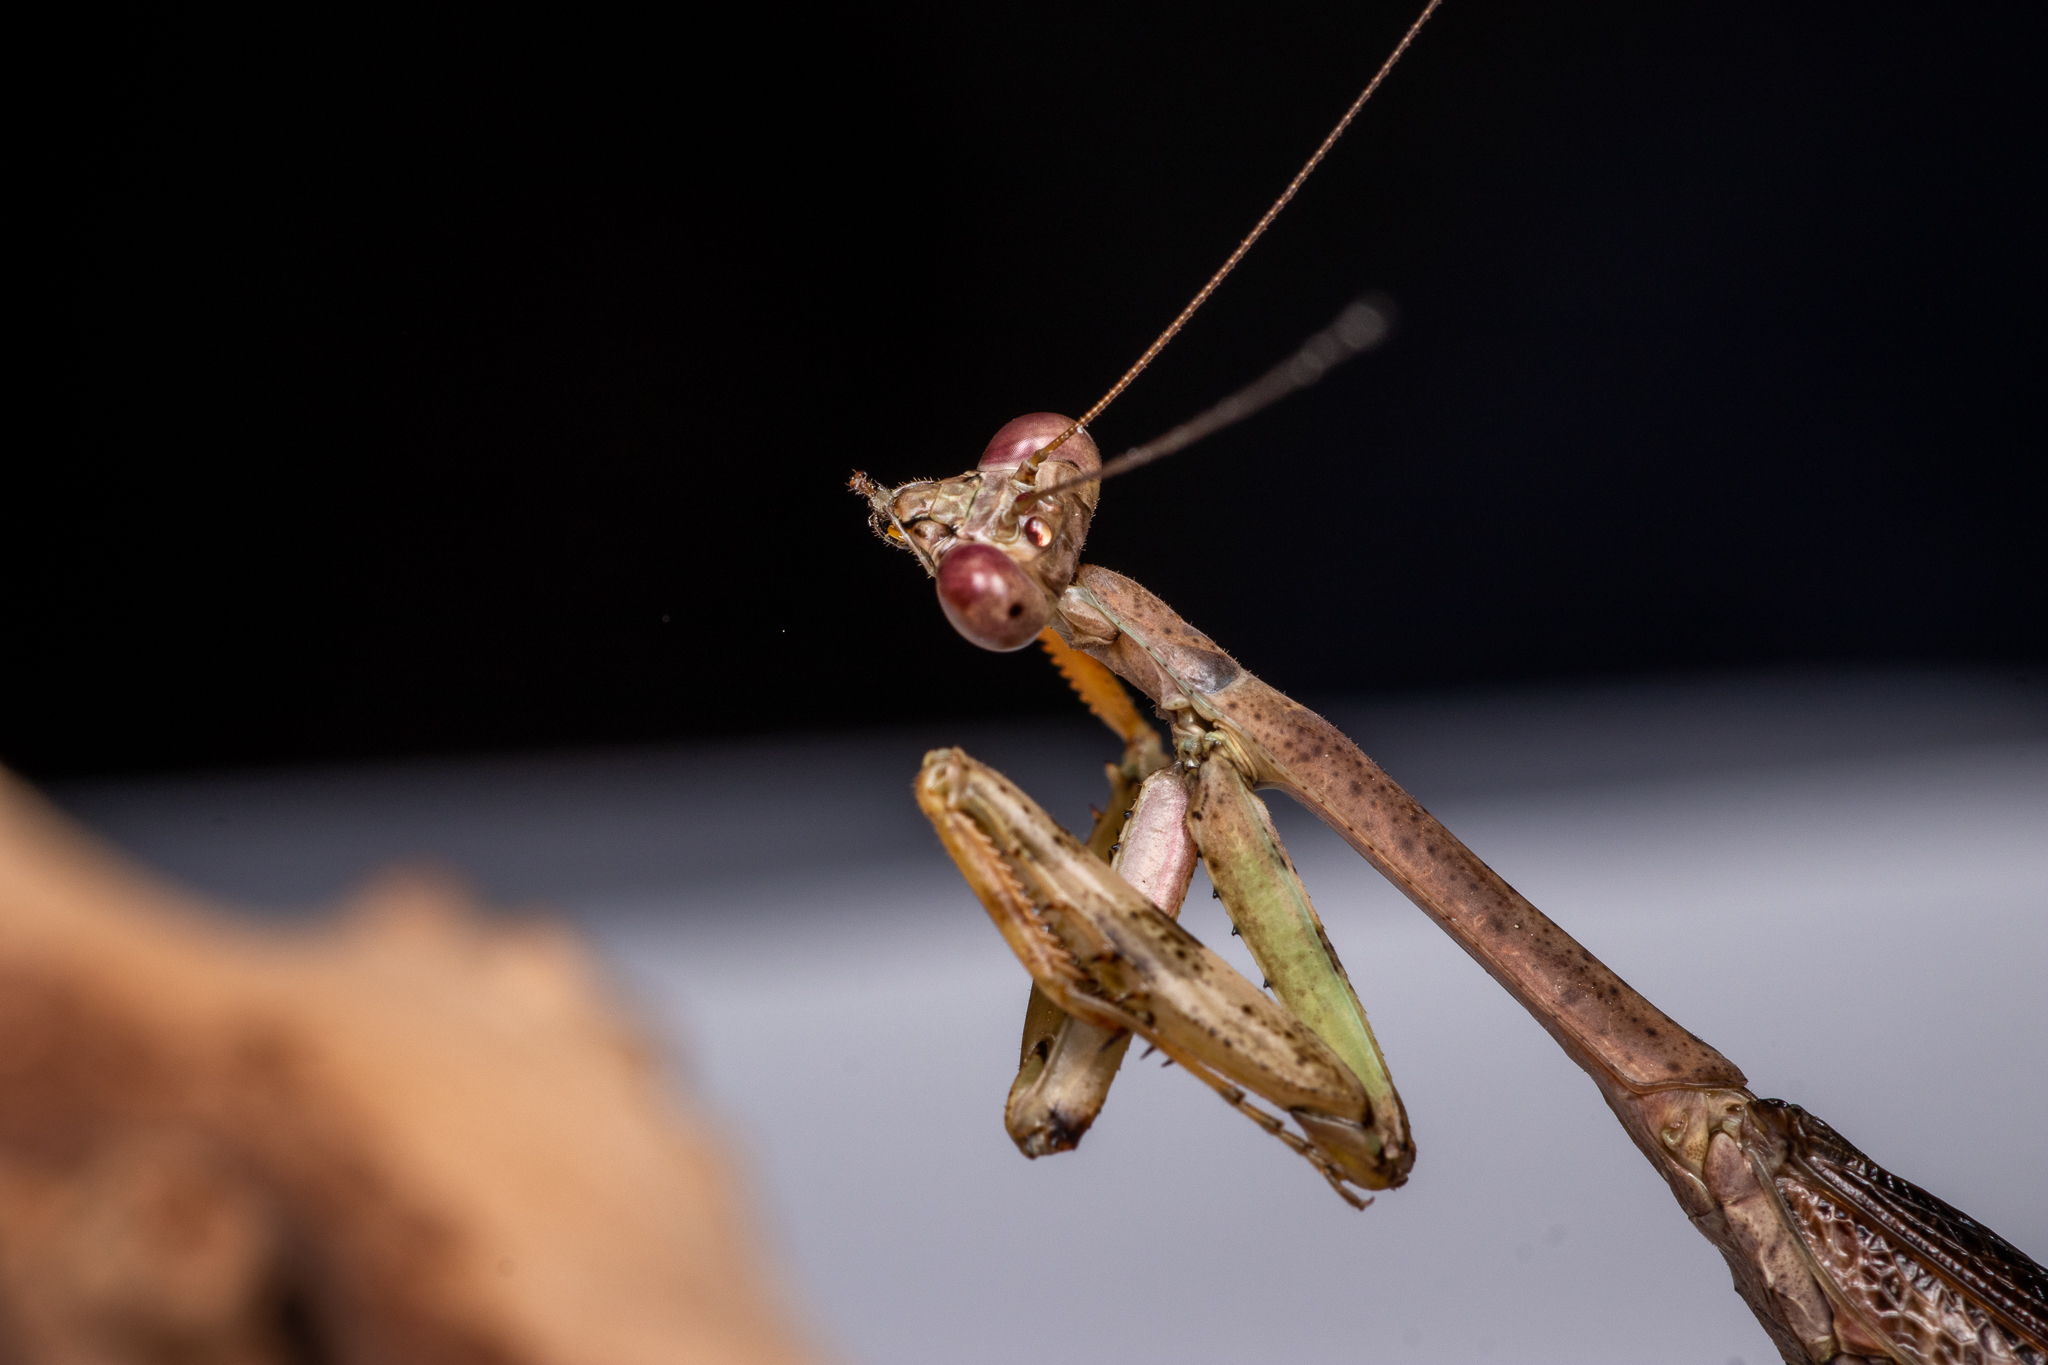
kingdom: Animalia
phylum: Arthropoda
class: Insecta
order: Mantodea
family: Mantidae
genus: Stagmomantis
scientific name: Stagmomantis carolina
